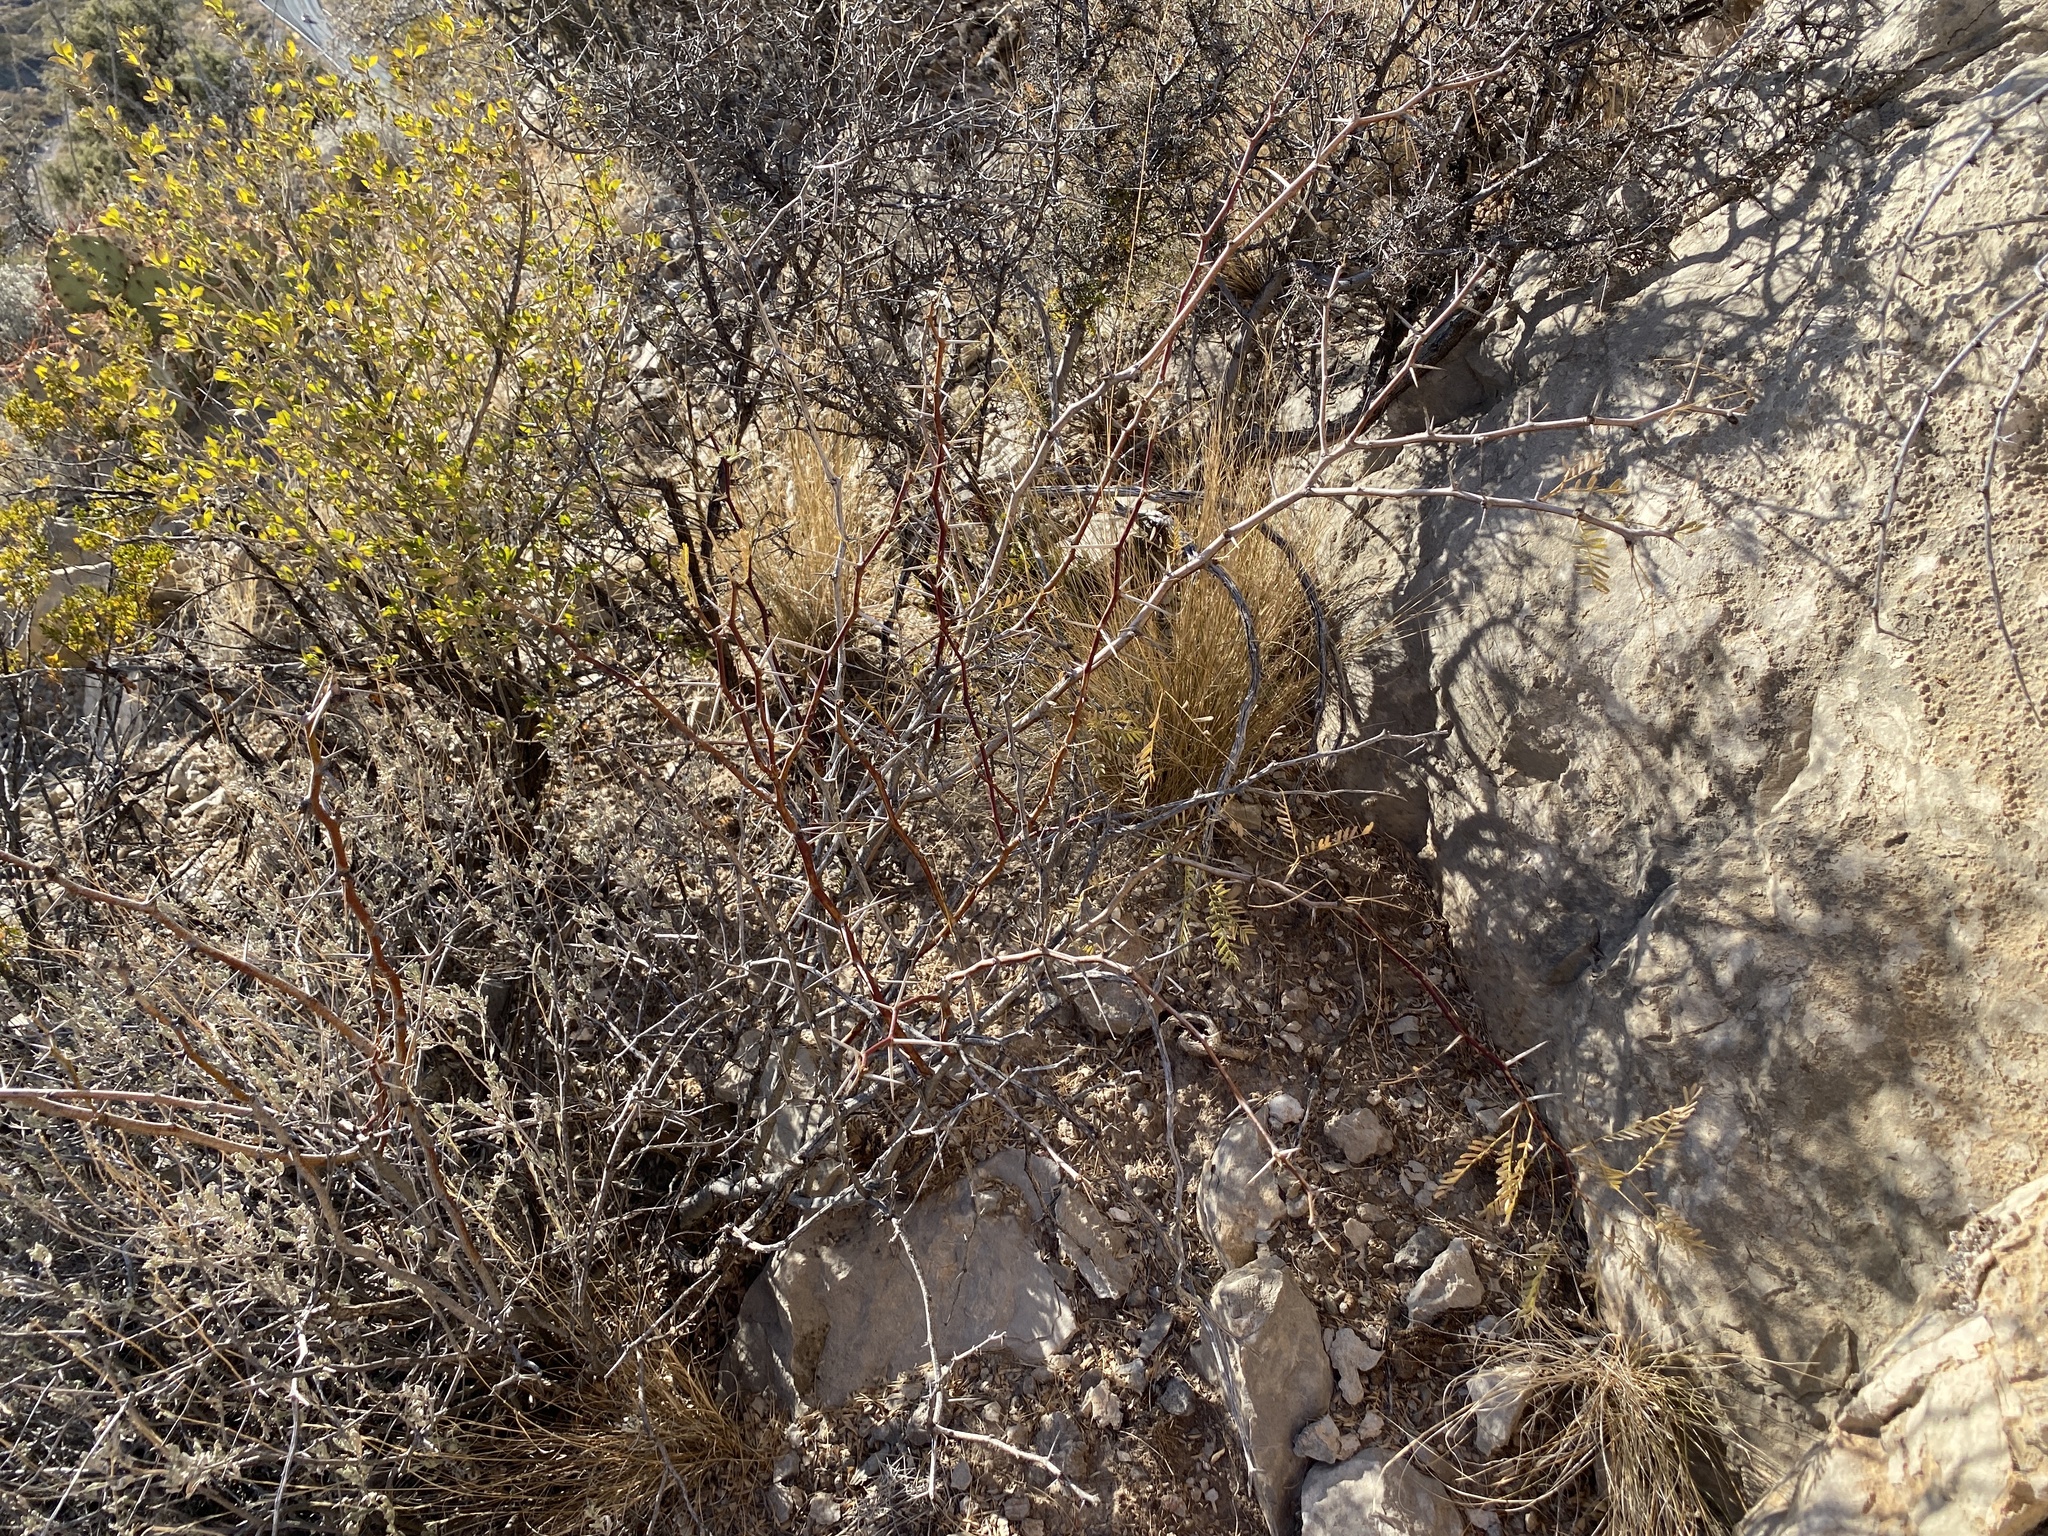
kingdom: Plantae
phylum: Tracheophyta
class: Magnoliopsida
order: Fabales
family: Fabaceae
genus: Prosopis
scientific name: Prosopis glandulosa
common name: Honey mesquite
